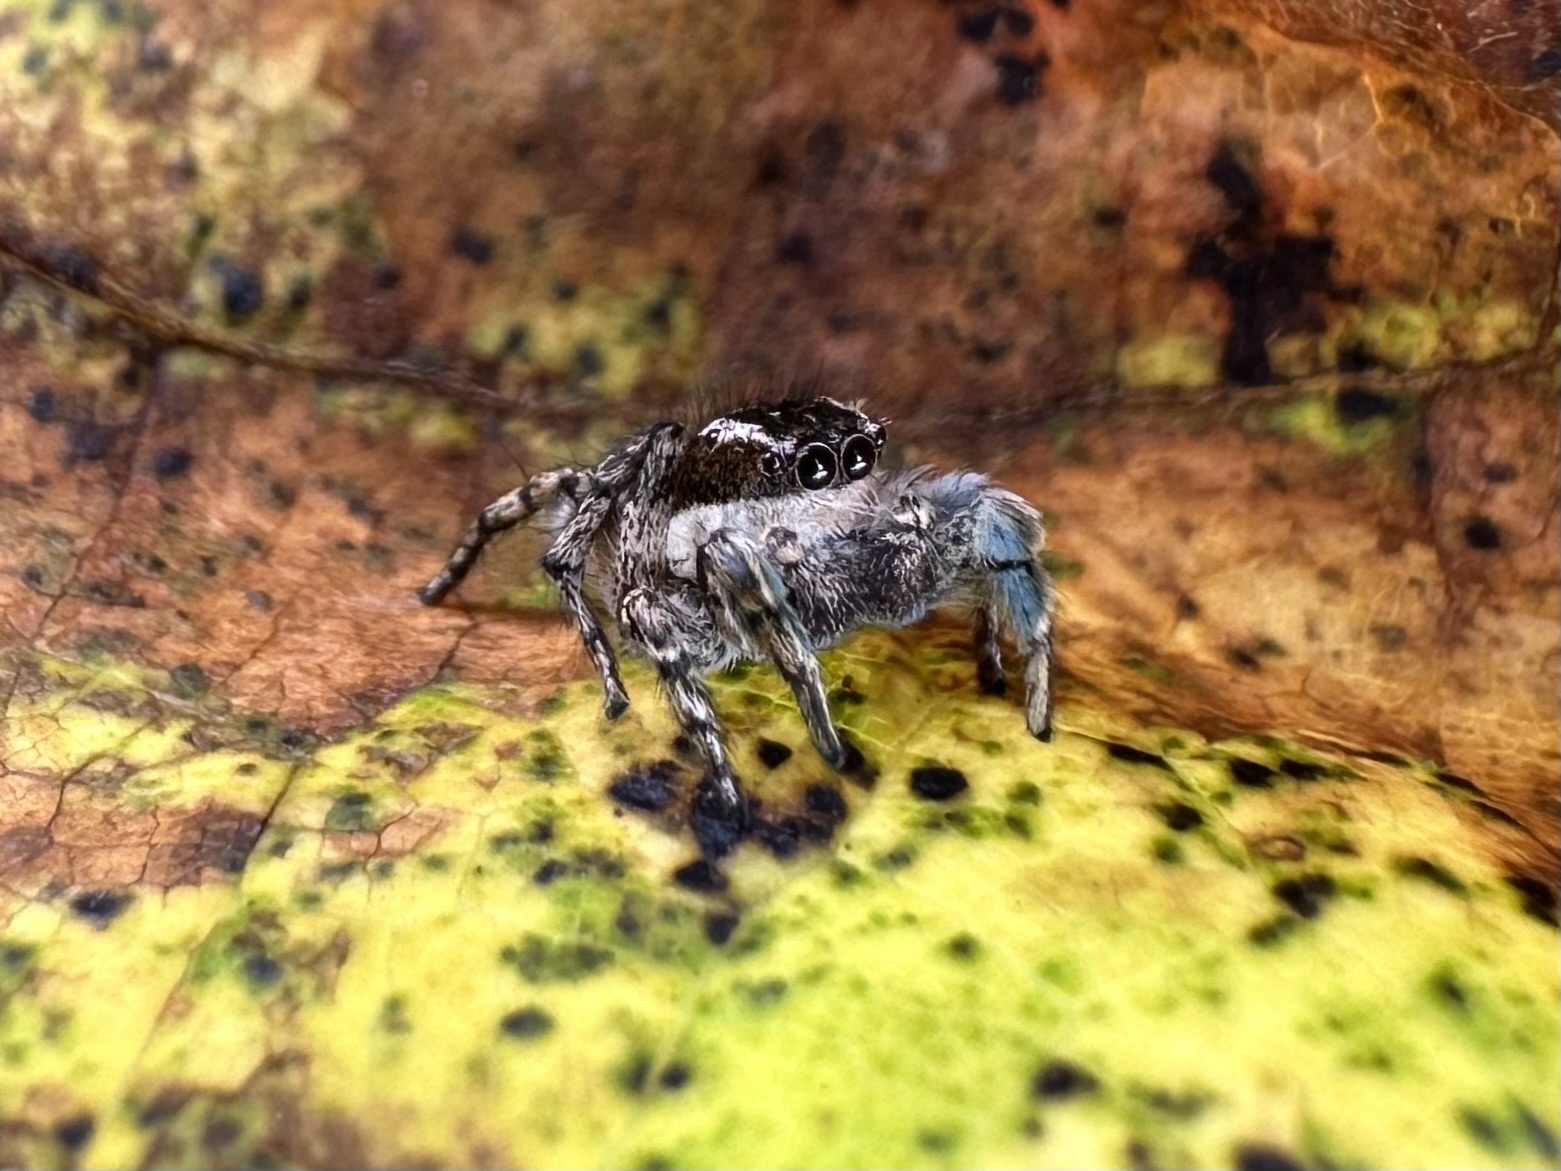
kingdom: Animalia
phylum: Arthropoda
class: Arachnida
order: Araneae
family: Salticidae
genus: Habronattus
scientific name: Habronattus cognatus
